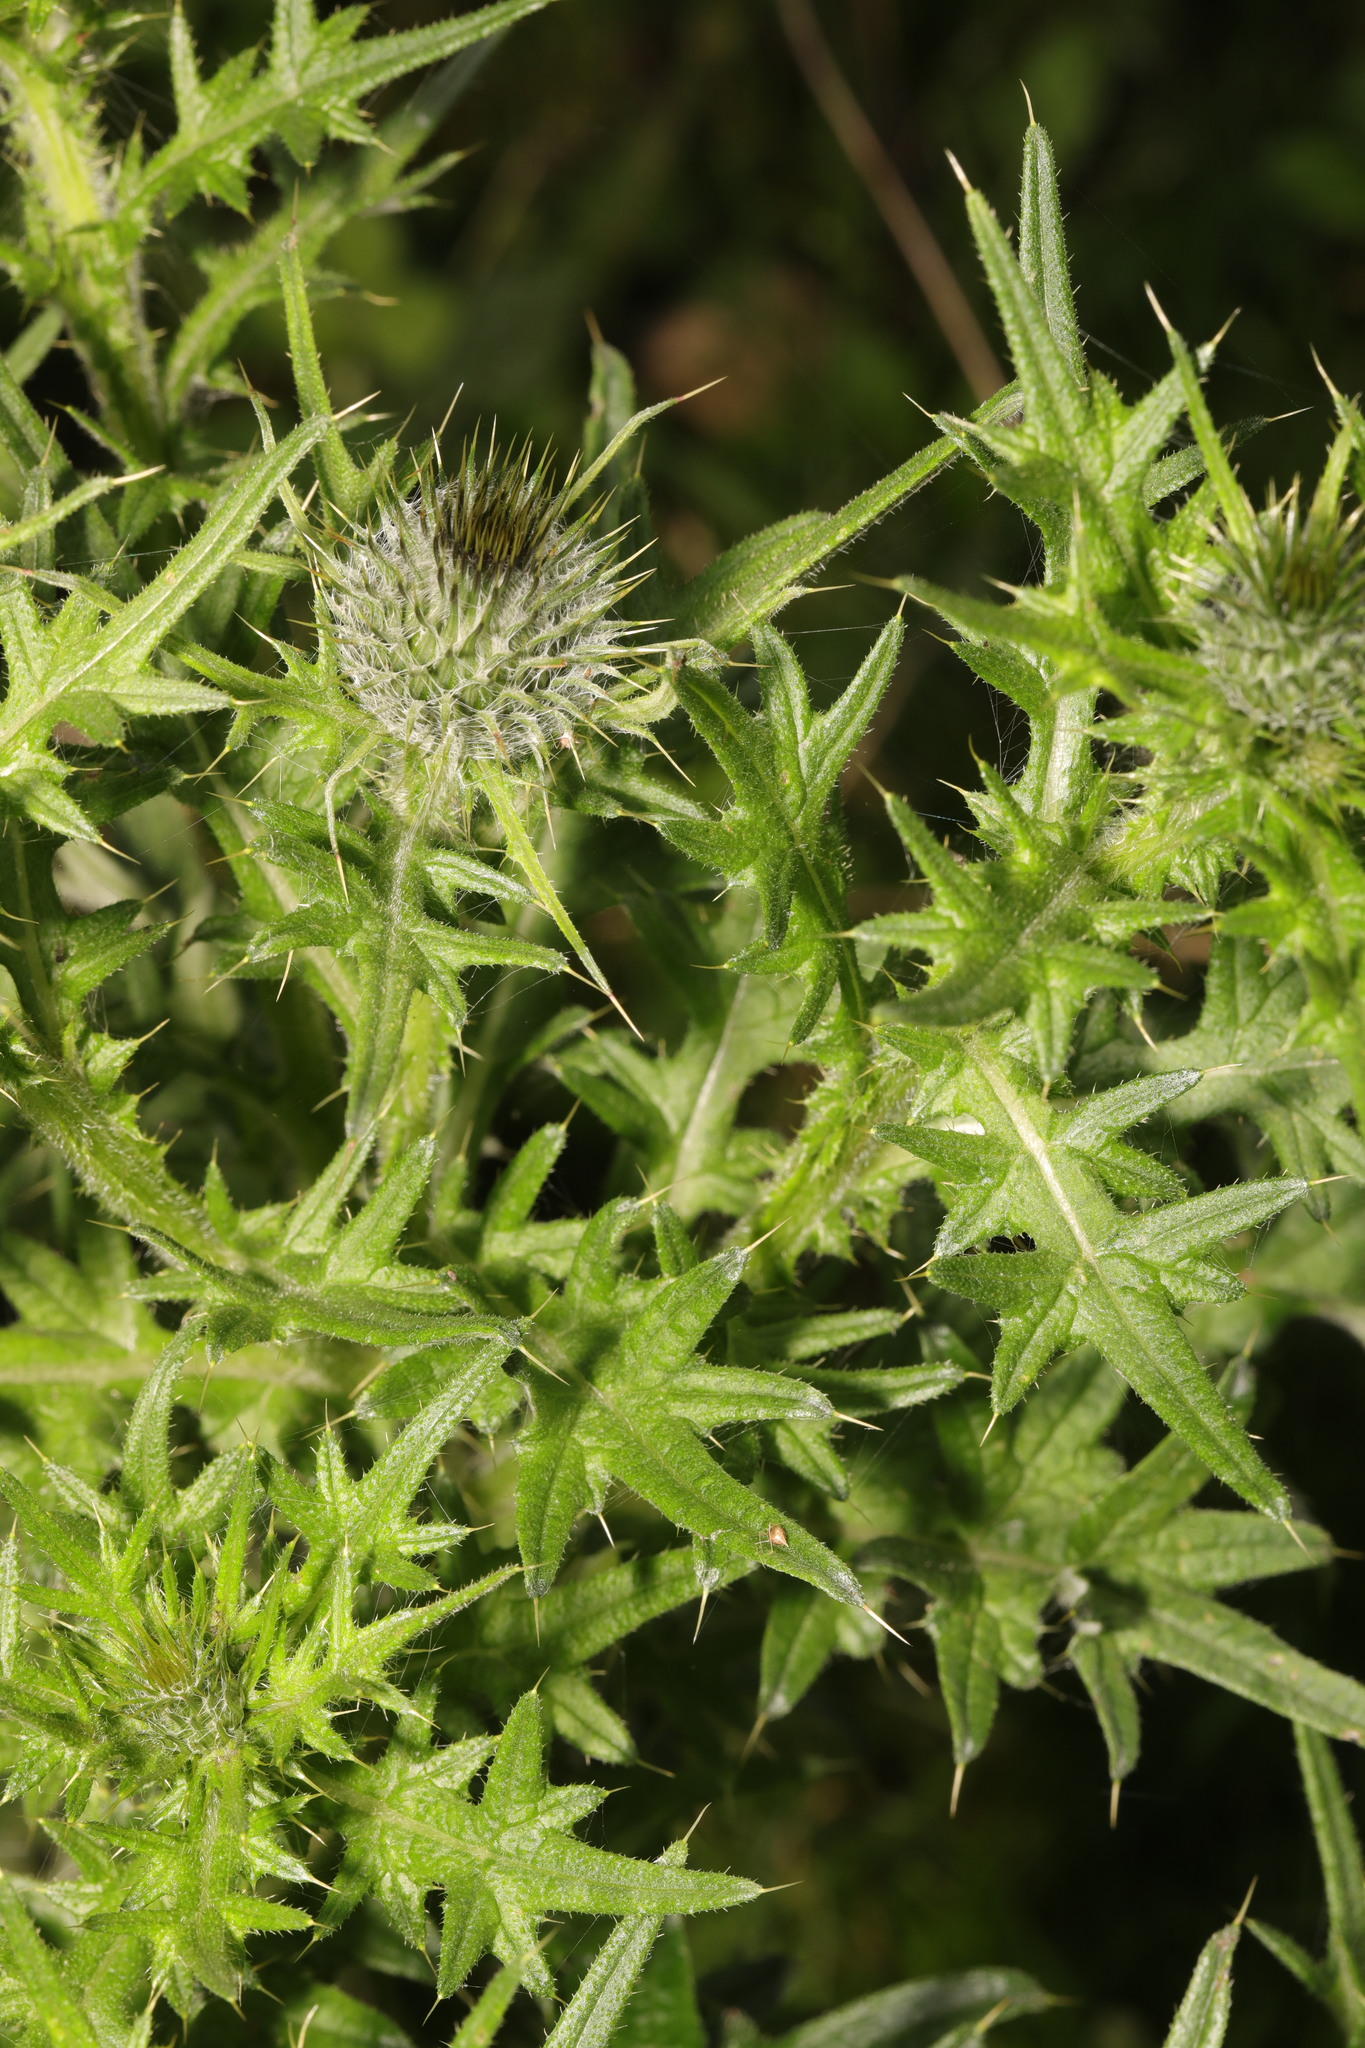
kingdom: Plantae
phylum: Tracheophyta
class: Magnoliopsida
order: Asterales
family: Asteraceae
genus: Cirsium
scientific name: Cirsium vulgare
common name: Bull thistle
